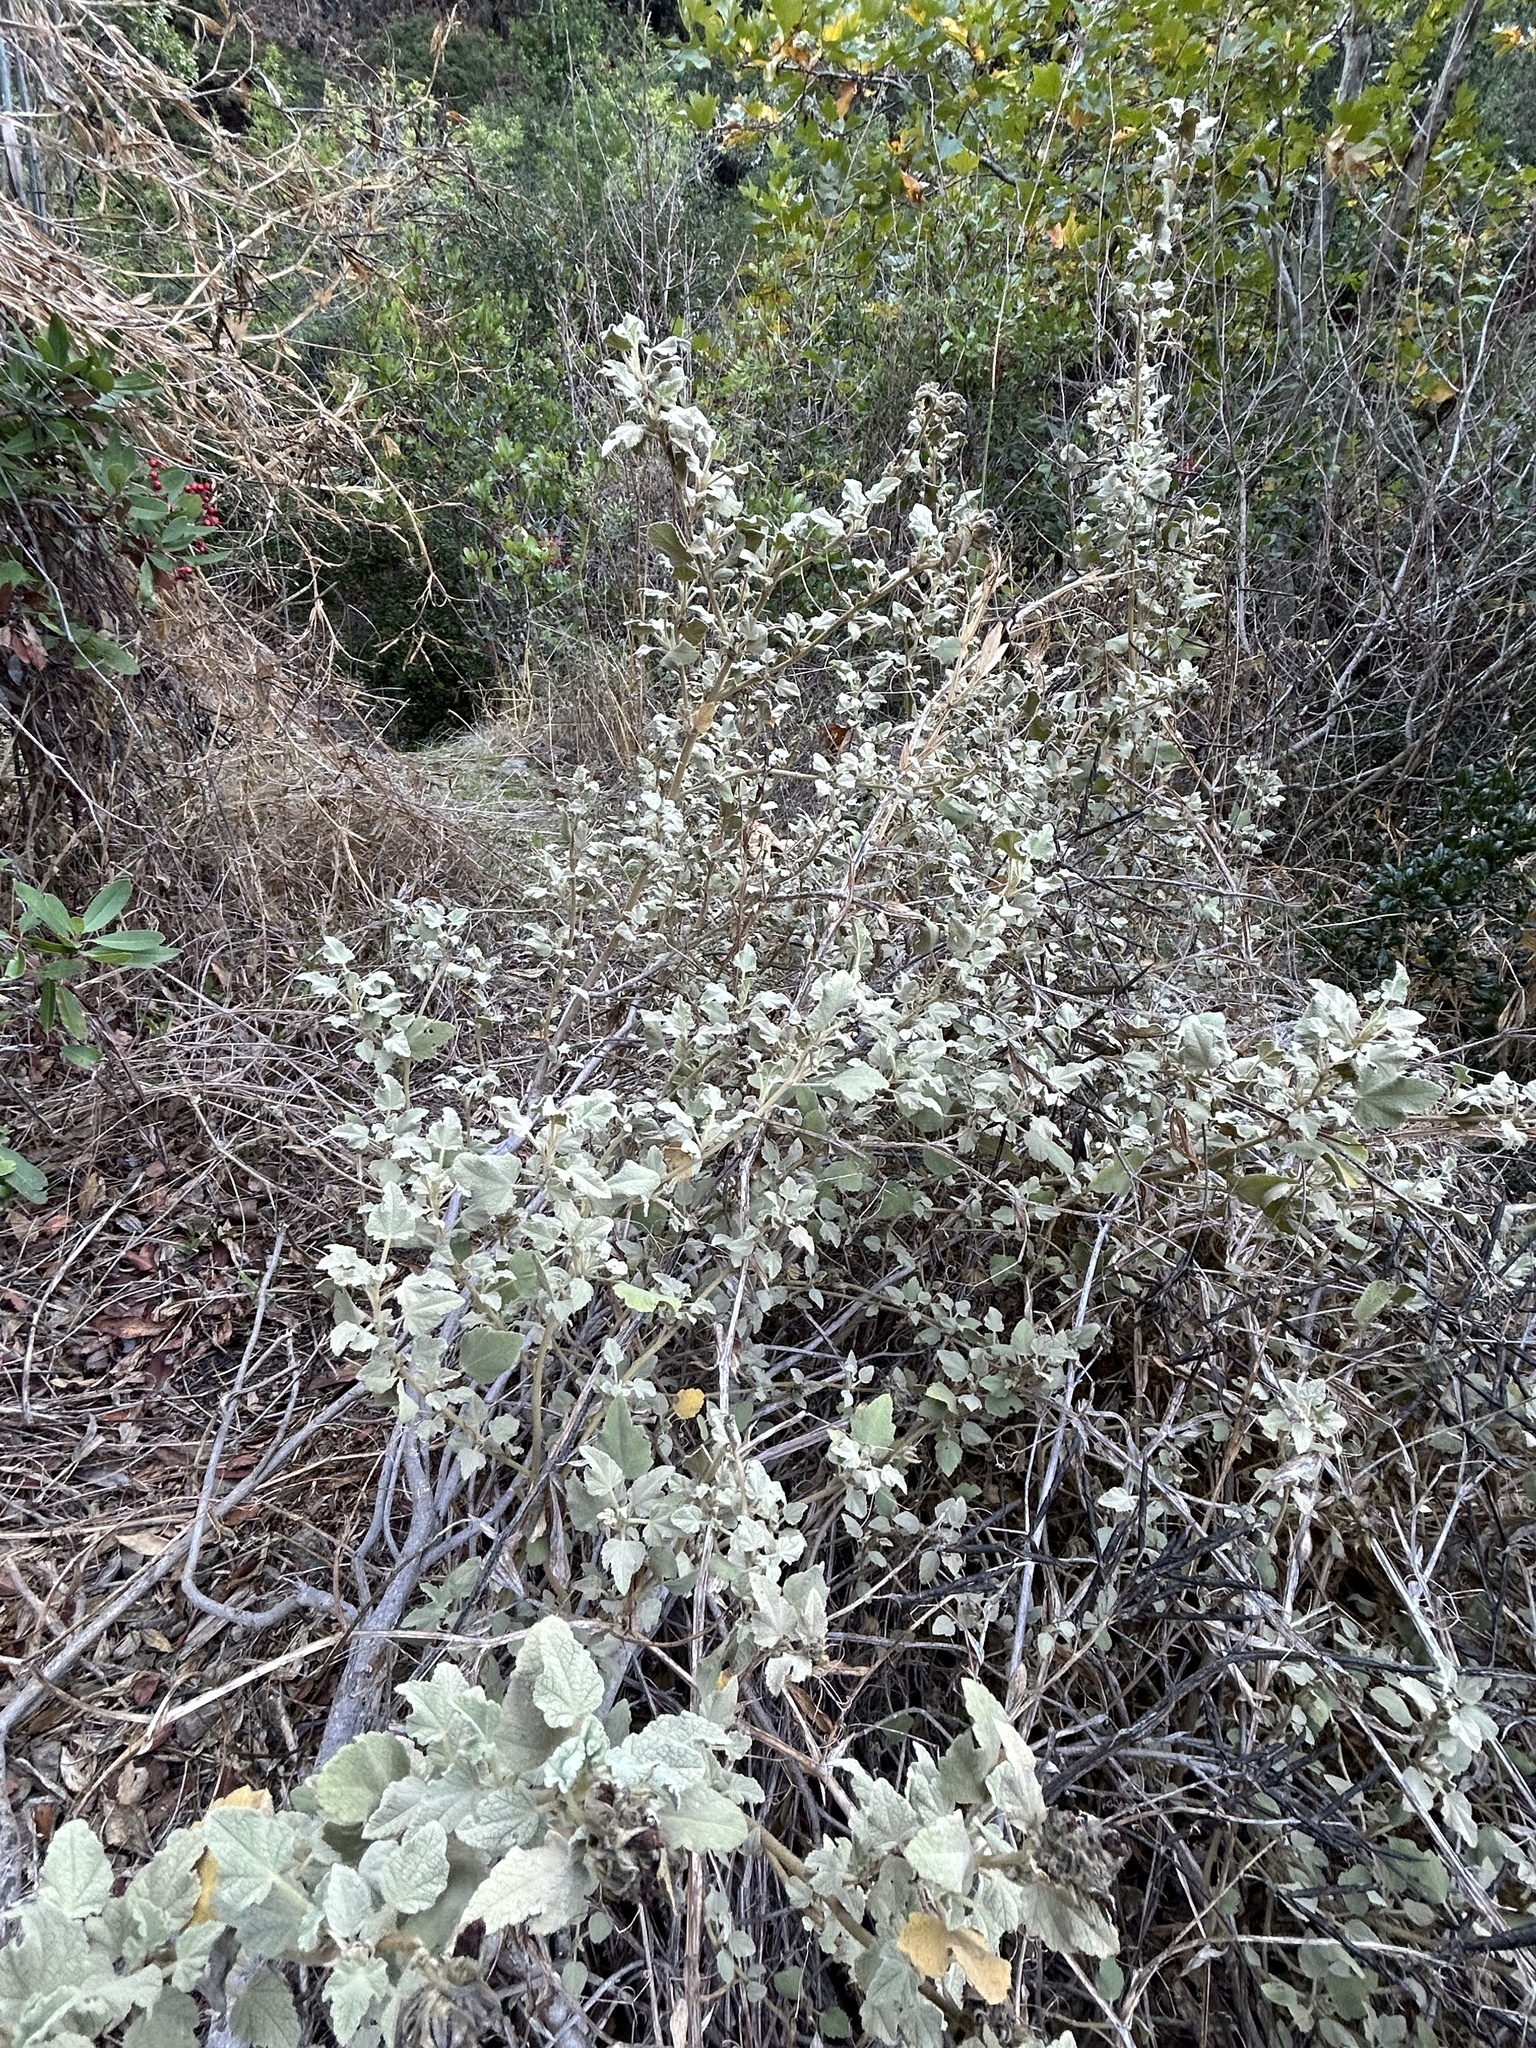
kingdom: Plantae
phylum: Tracheophyta
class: Magnoliopsida
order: Malvales
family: Malvaceae
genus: Malacothamnus
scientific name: Malacothamnus palmeri
